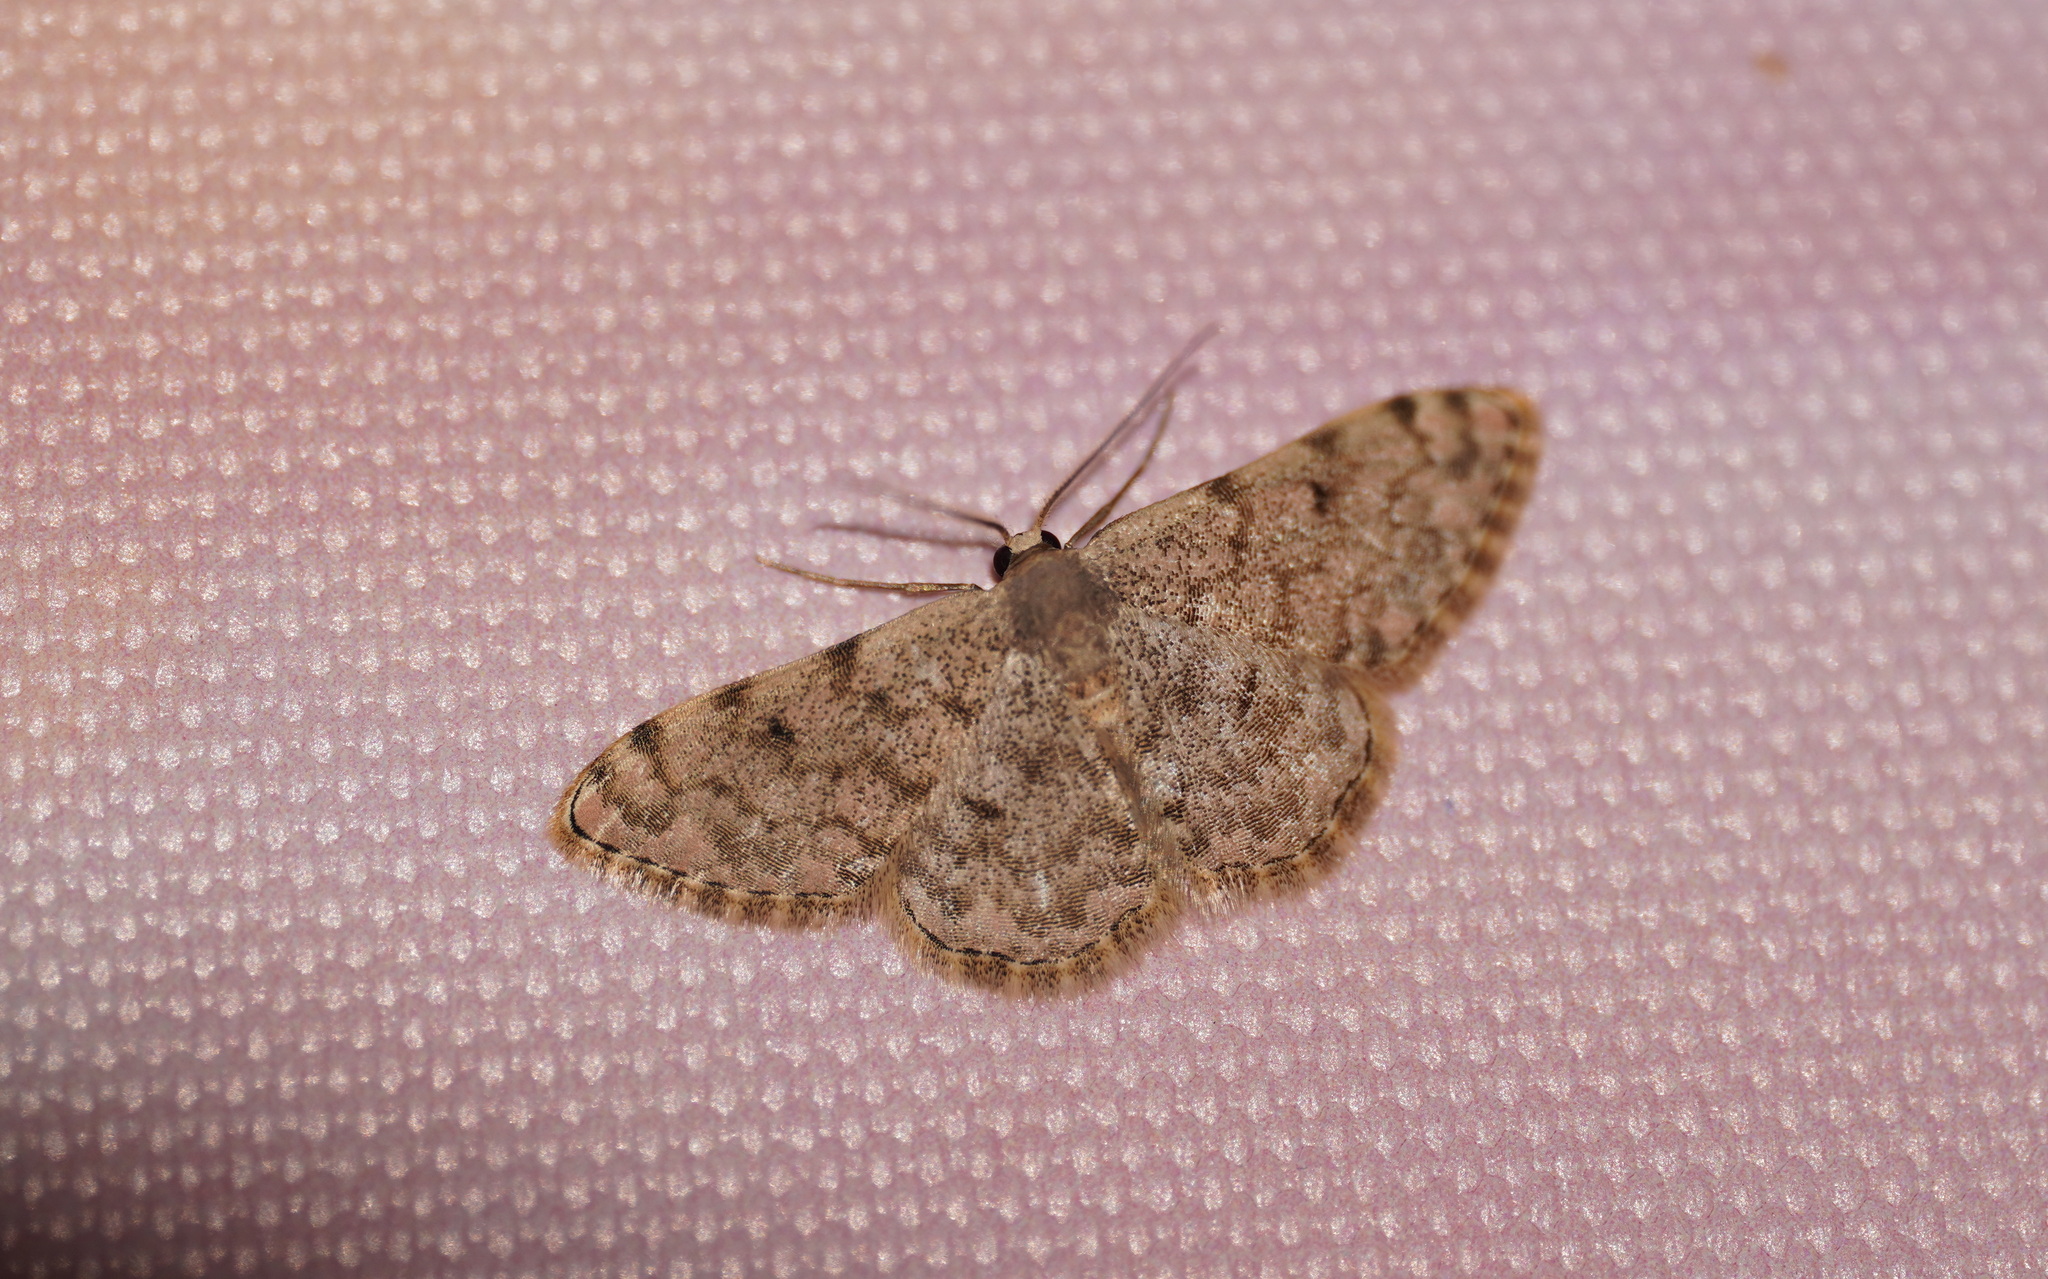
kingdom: Animalia
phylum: Arthropoda
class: Insecta
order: Lepidoptera
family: Geometridae
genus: Glossotrophia
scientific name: Glossotrophia asellaria
